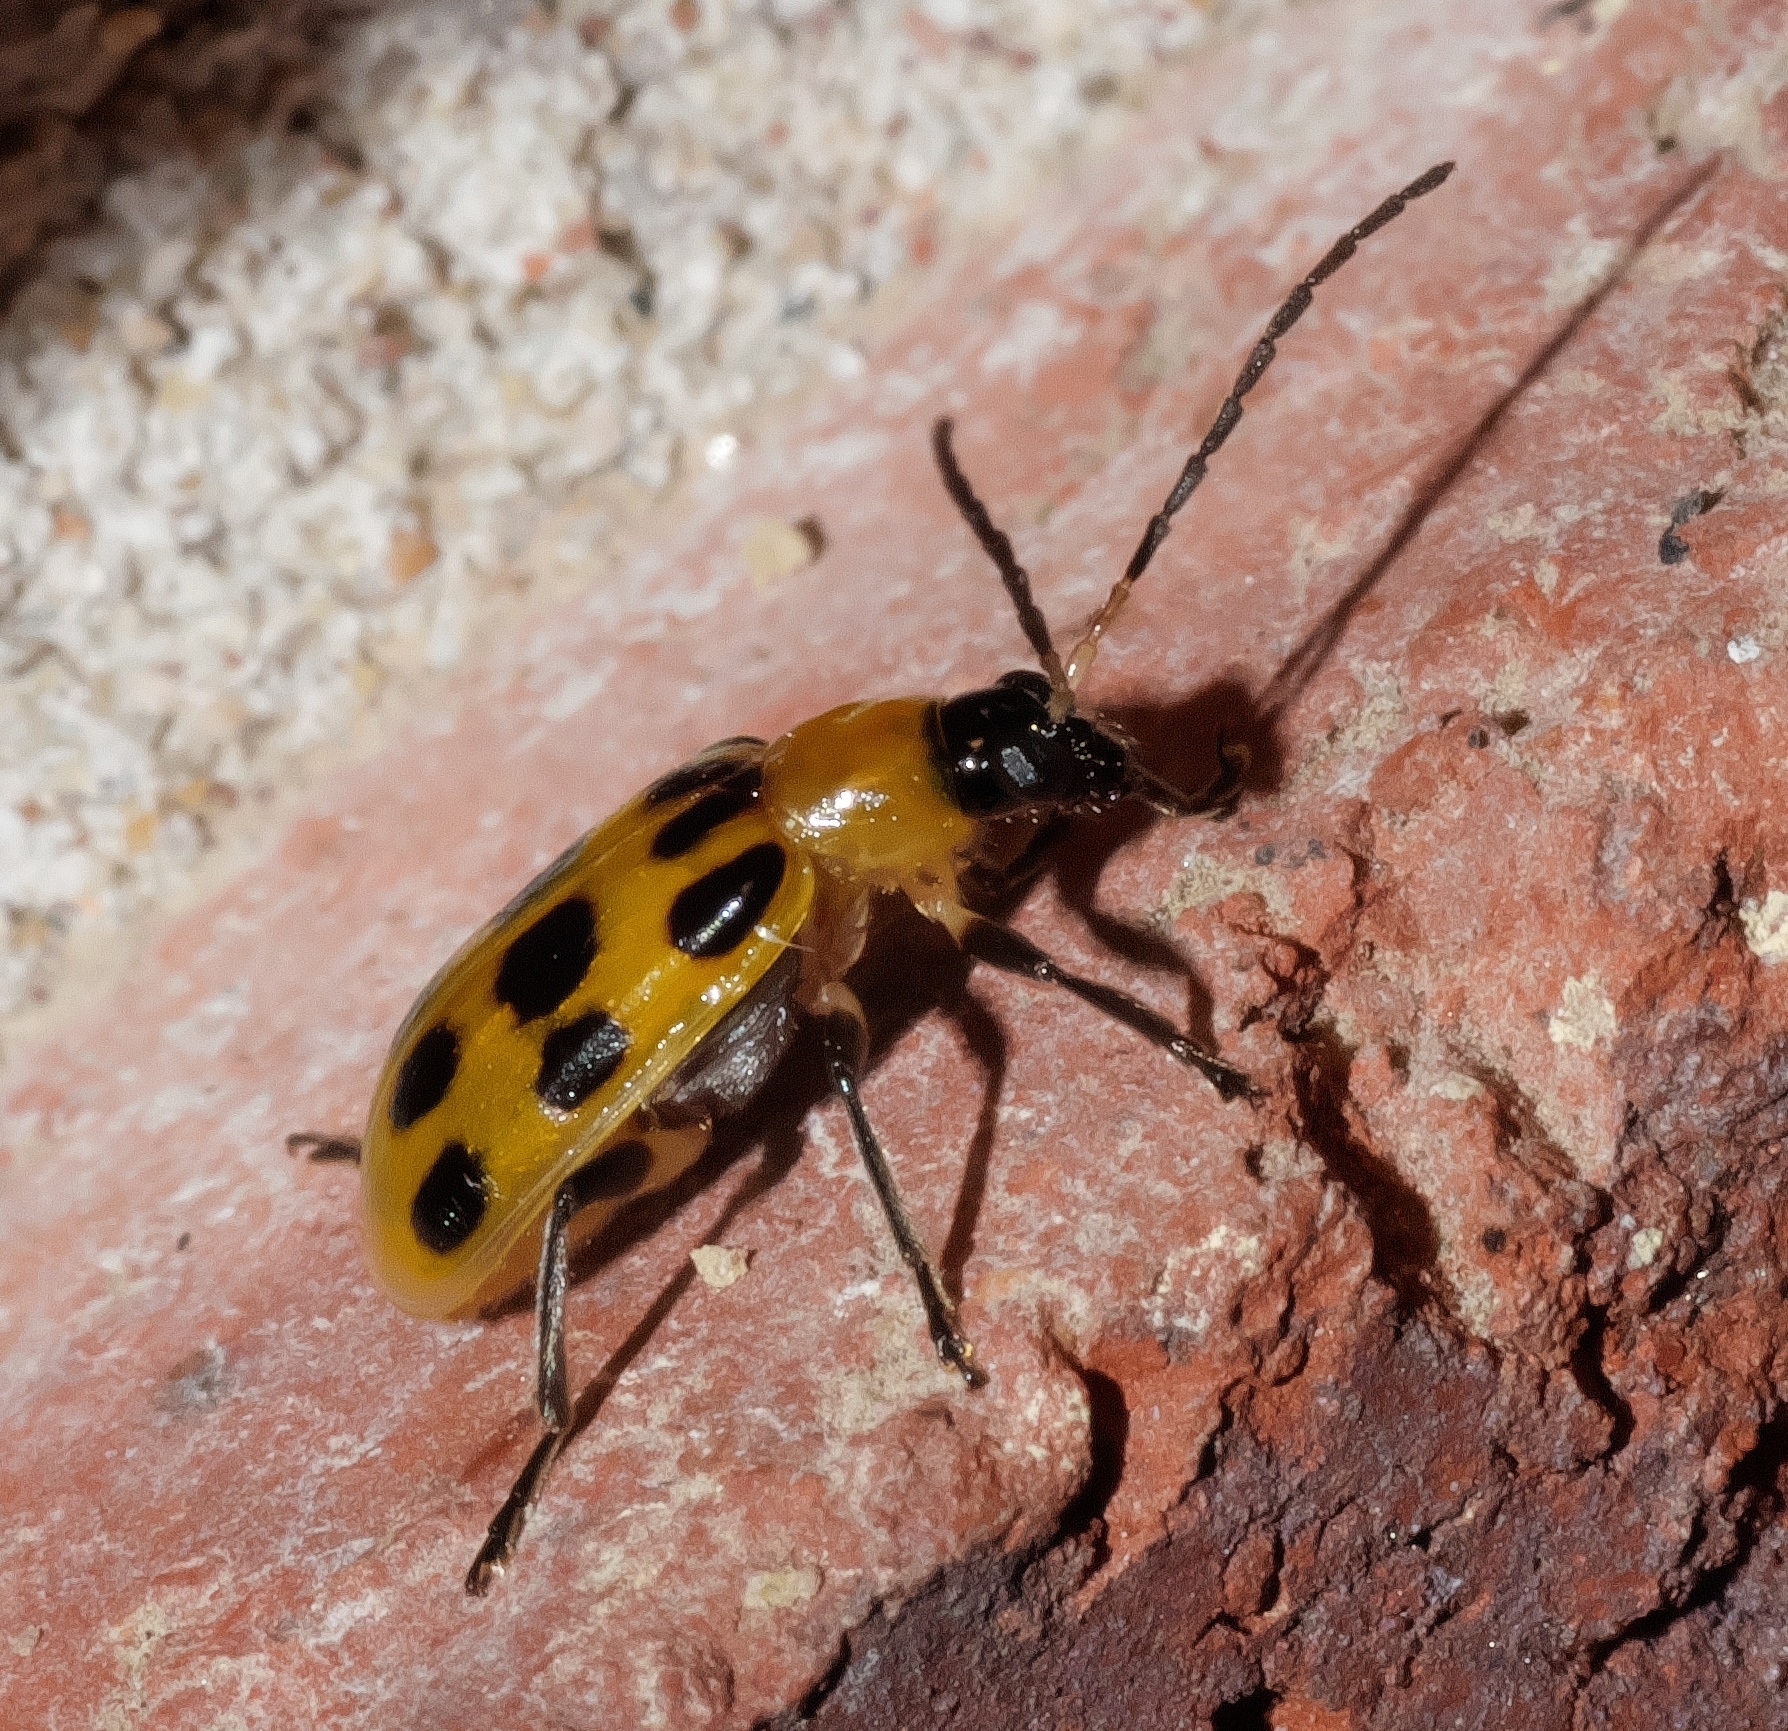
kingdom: Animalia
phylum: Arthropoda
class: Insecta
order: Coleoptera
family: Chrysomelidae
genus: Diabrotica
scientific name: Diabrotica undecimpunctata
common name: Spotted cucumber beetle
